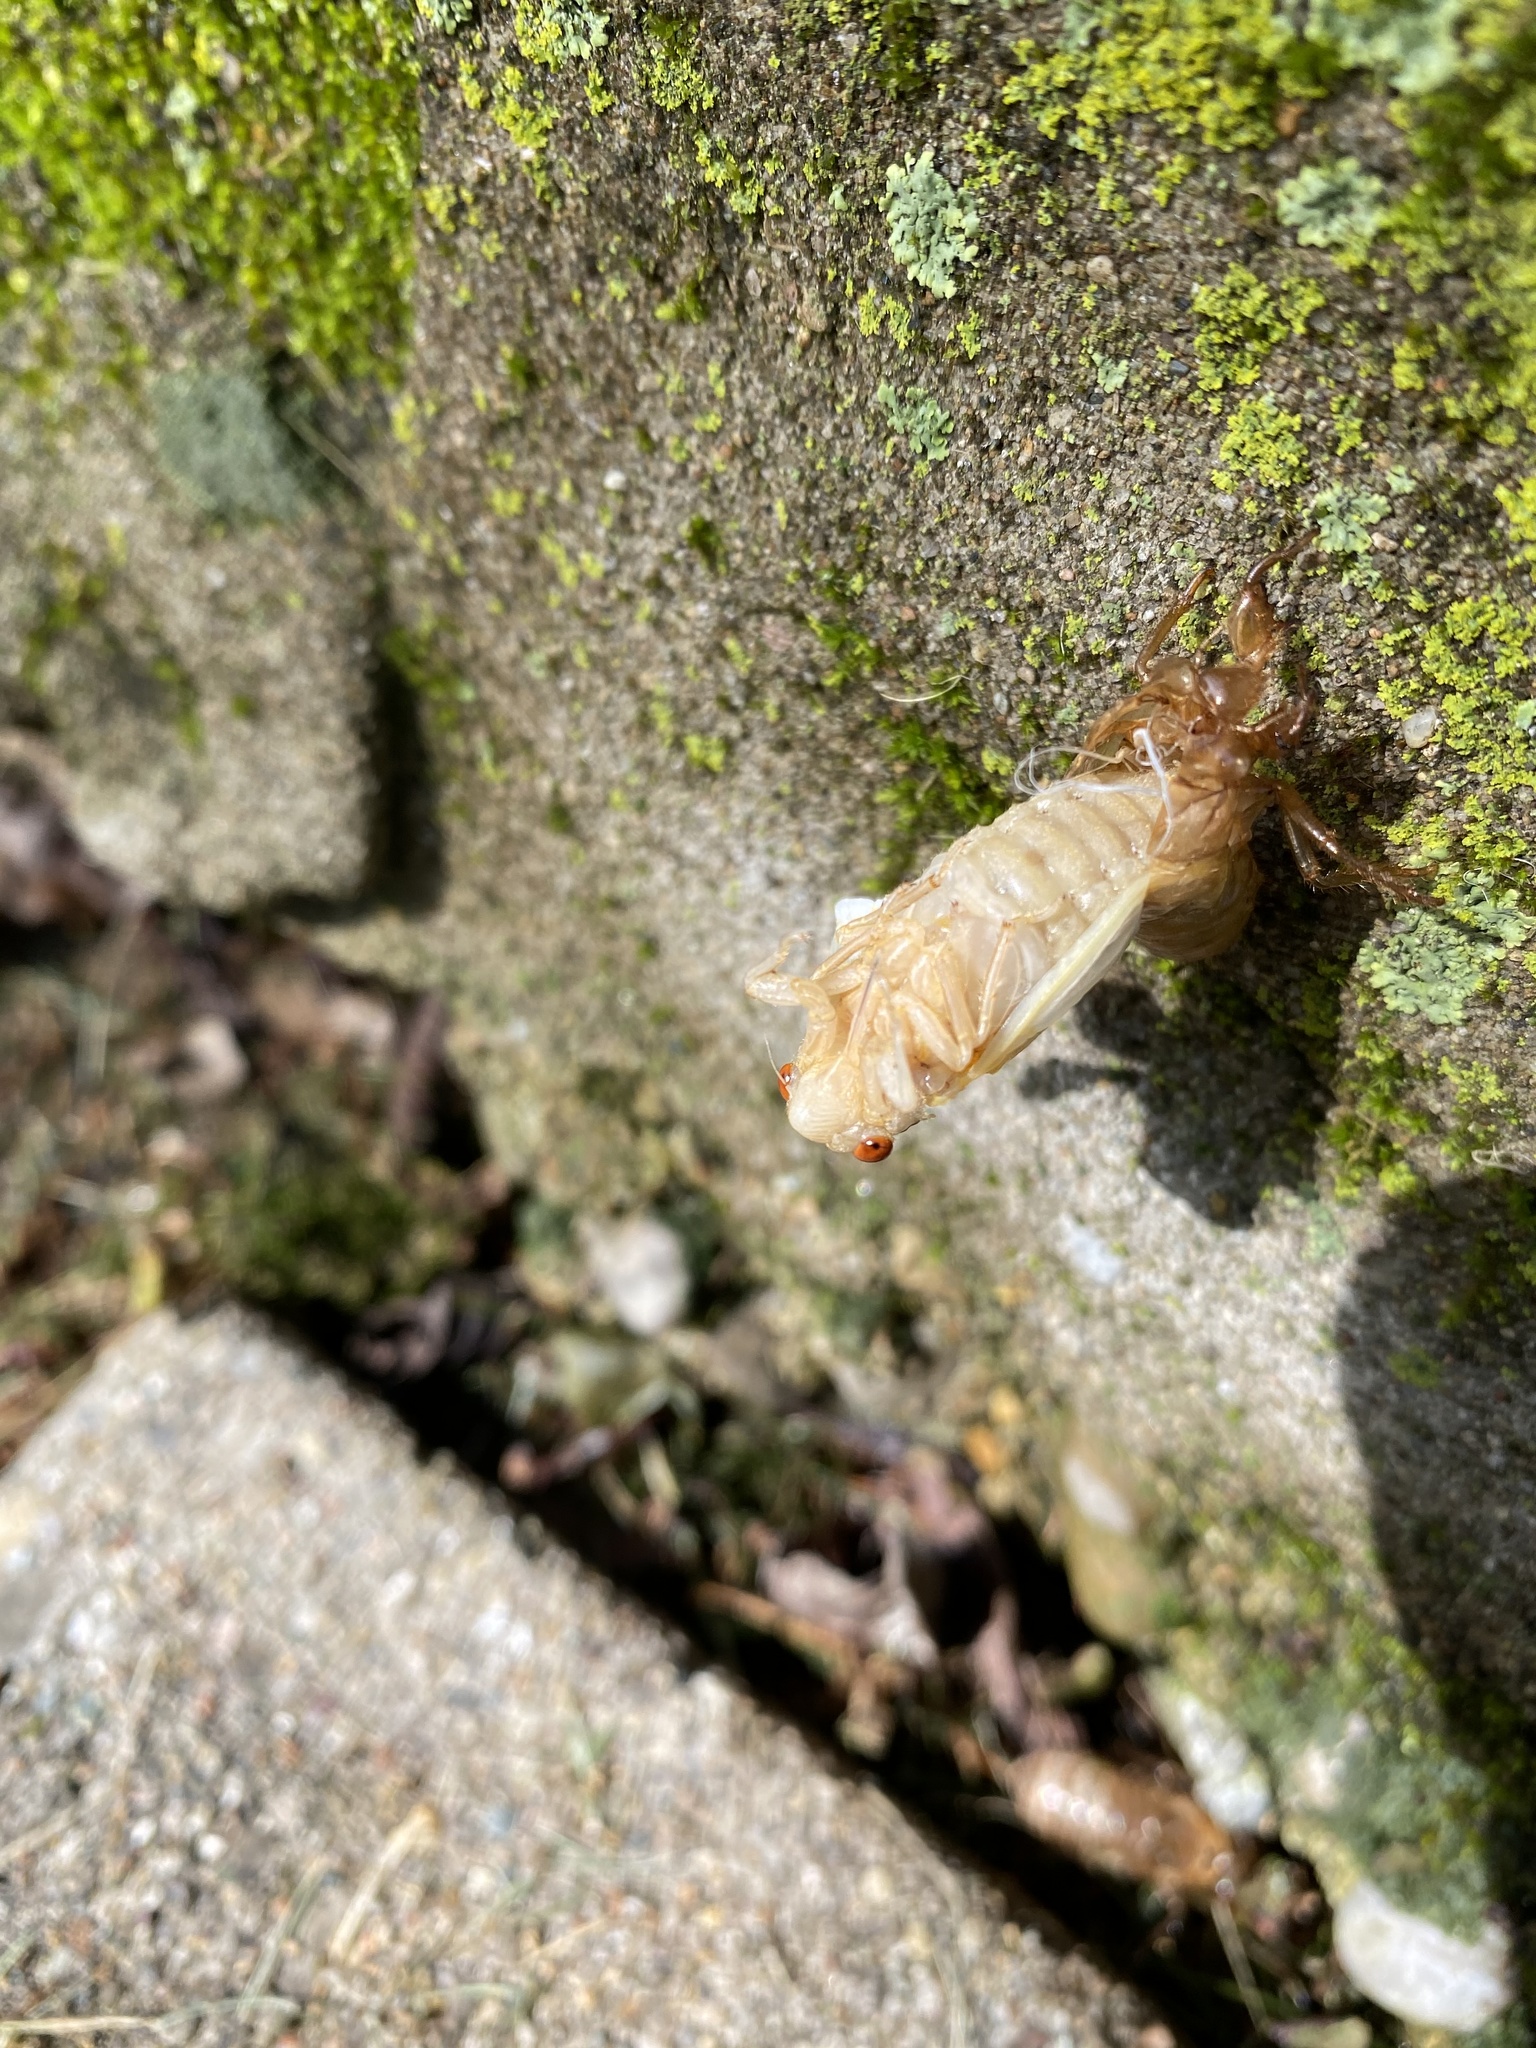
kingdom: Animalia
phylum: Arthropoda
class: Insecta
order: Hemiptera
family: Cicadidae
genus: Magicicada
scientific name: Magicicada
